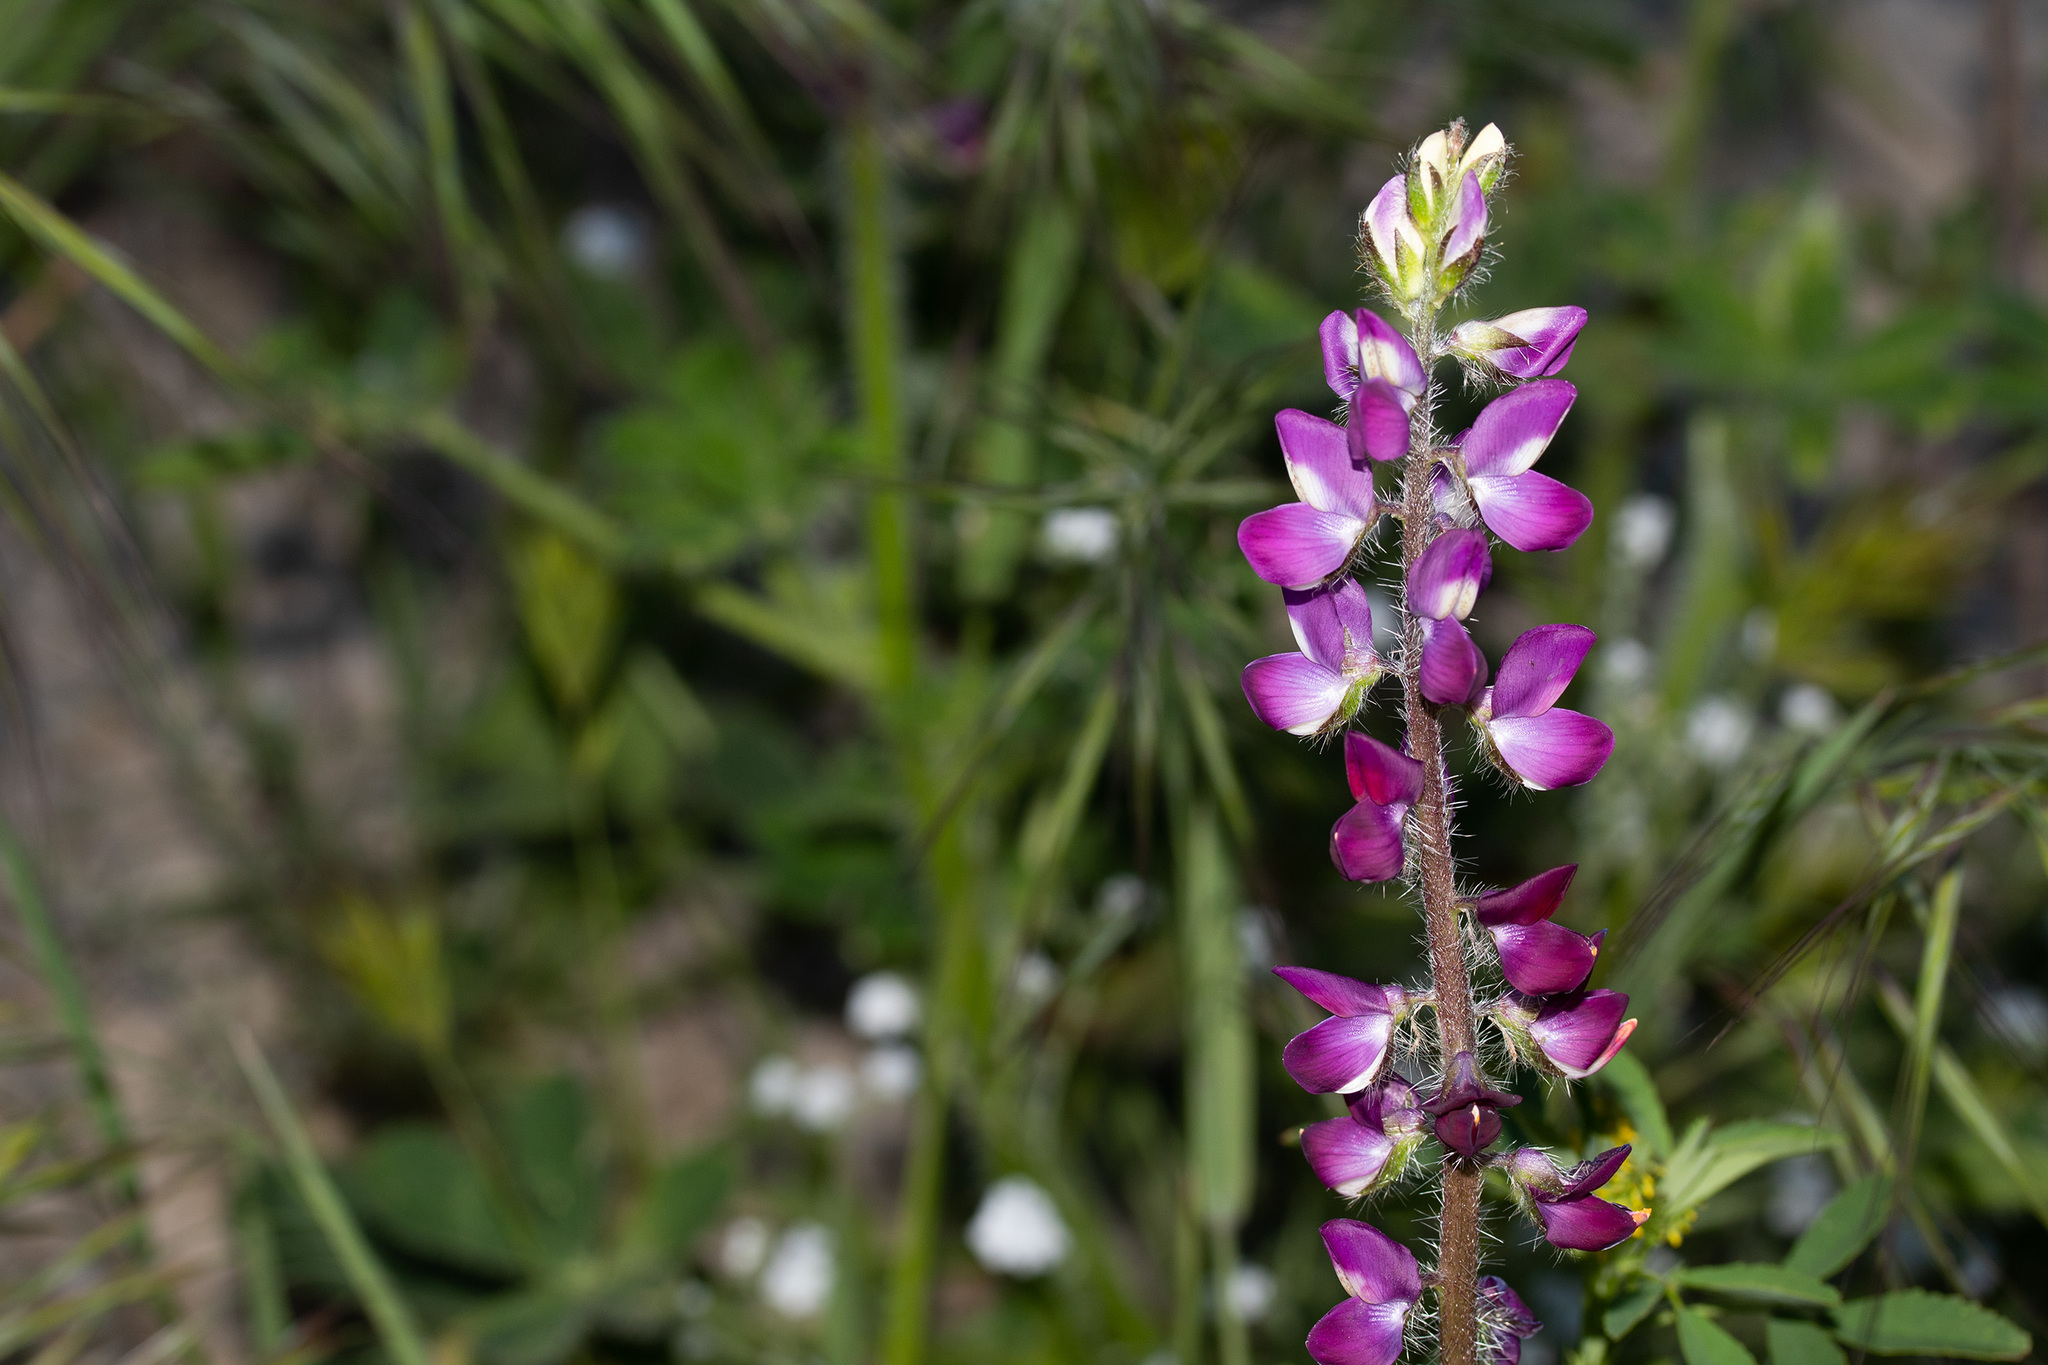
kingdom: Plantae
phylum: Tracheophyta
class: Magnoliopsida
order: Fabales
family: Fabaceae
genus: Lupinus
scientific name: Lupinus hirsutissimus
